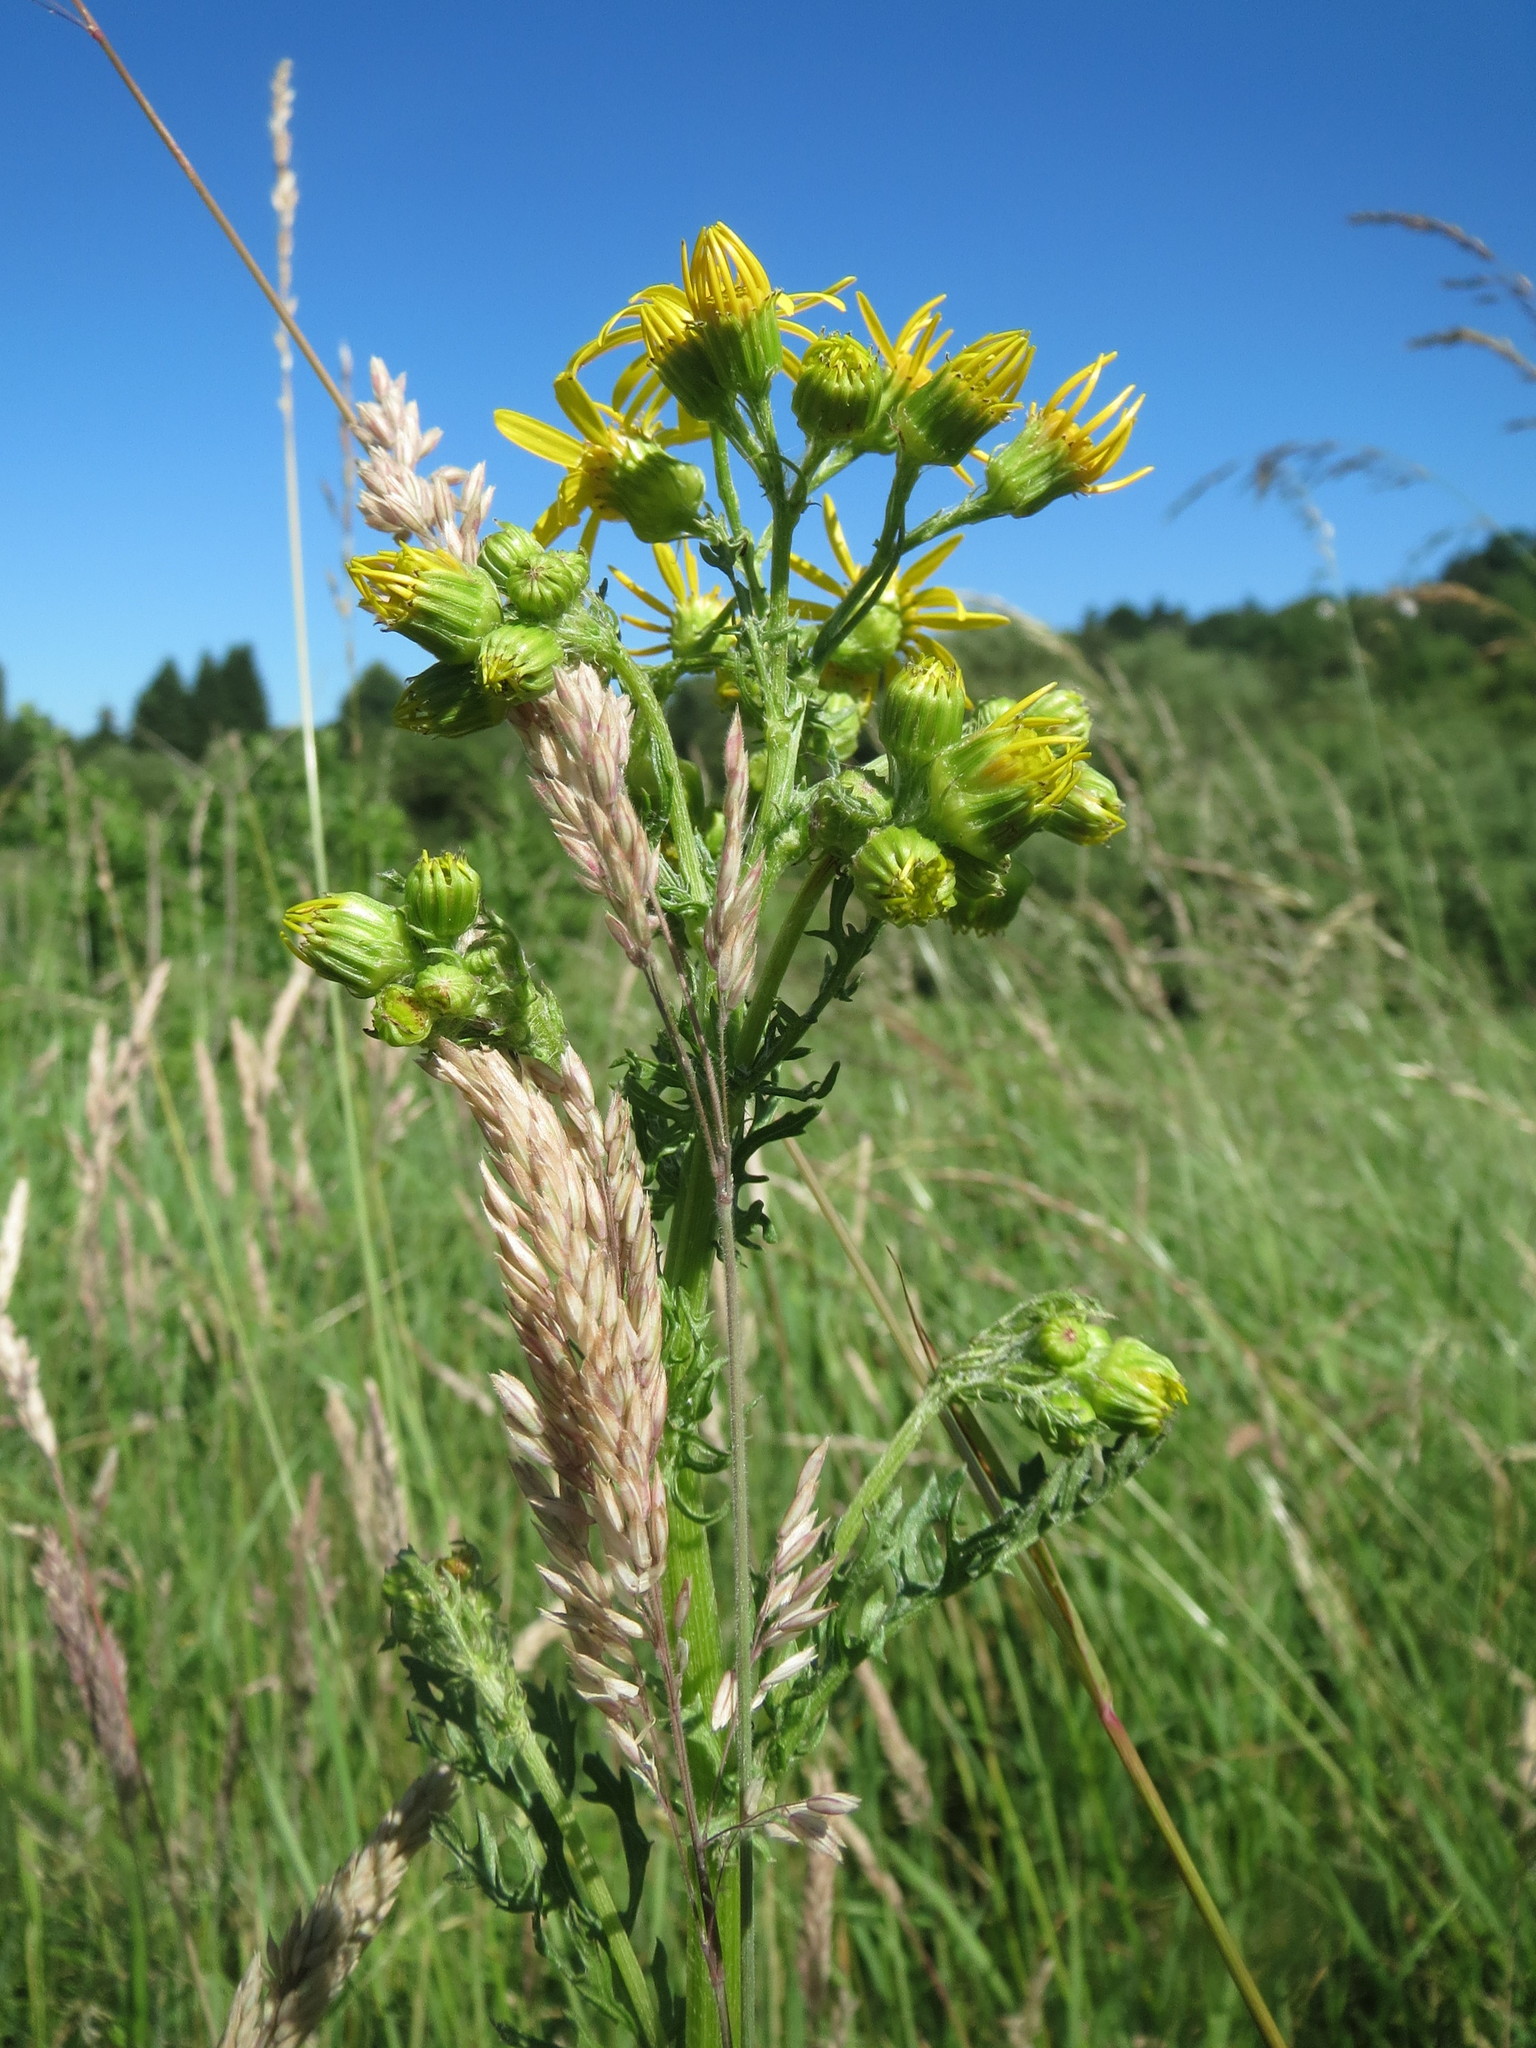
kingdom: Plantae
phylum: Tracheophyta
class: Magnoliopsida
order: Asterales
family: Asteraceae
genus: Jacobaea
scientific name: Jacobaea vulgaris
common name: Stinking willie
